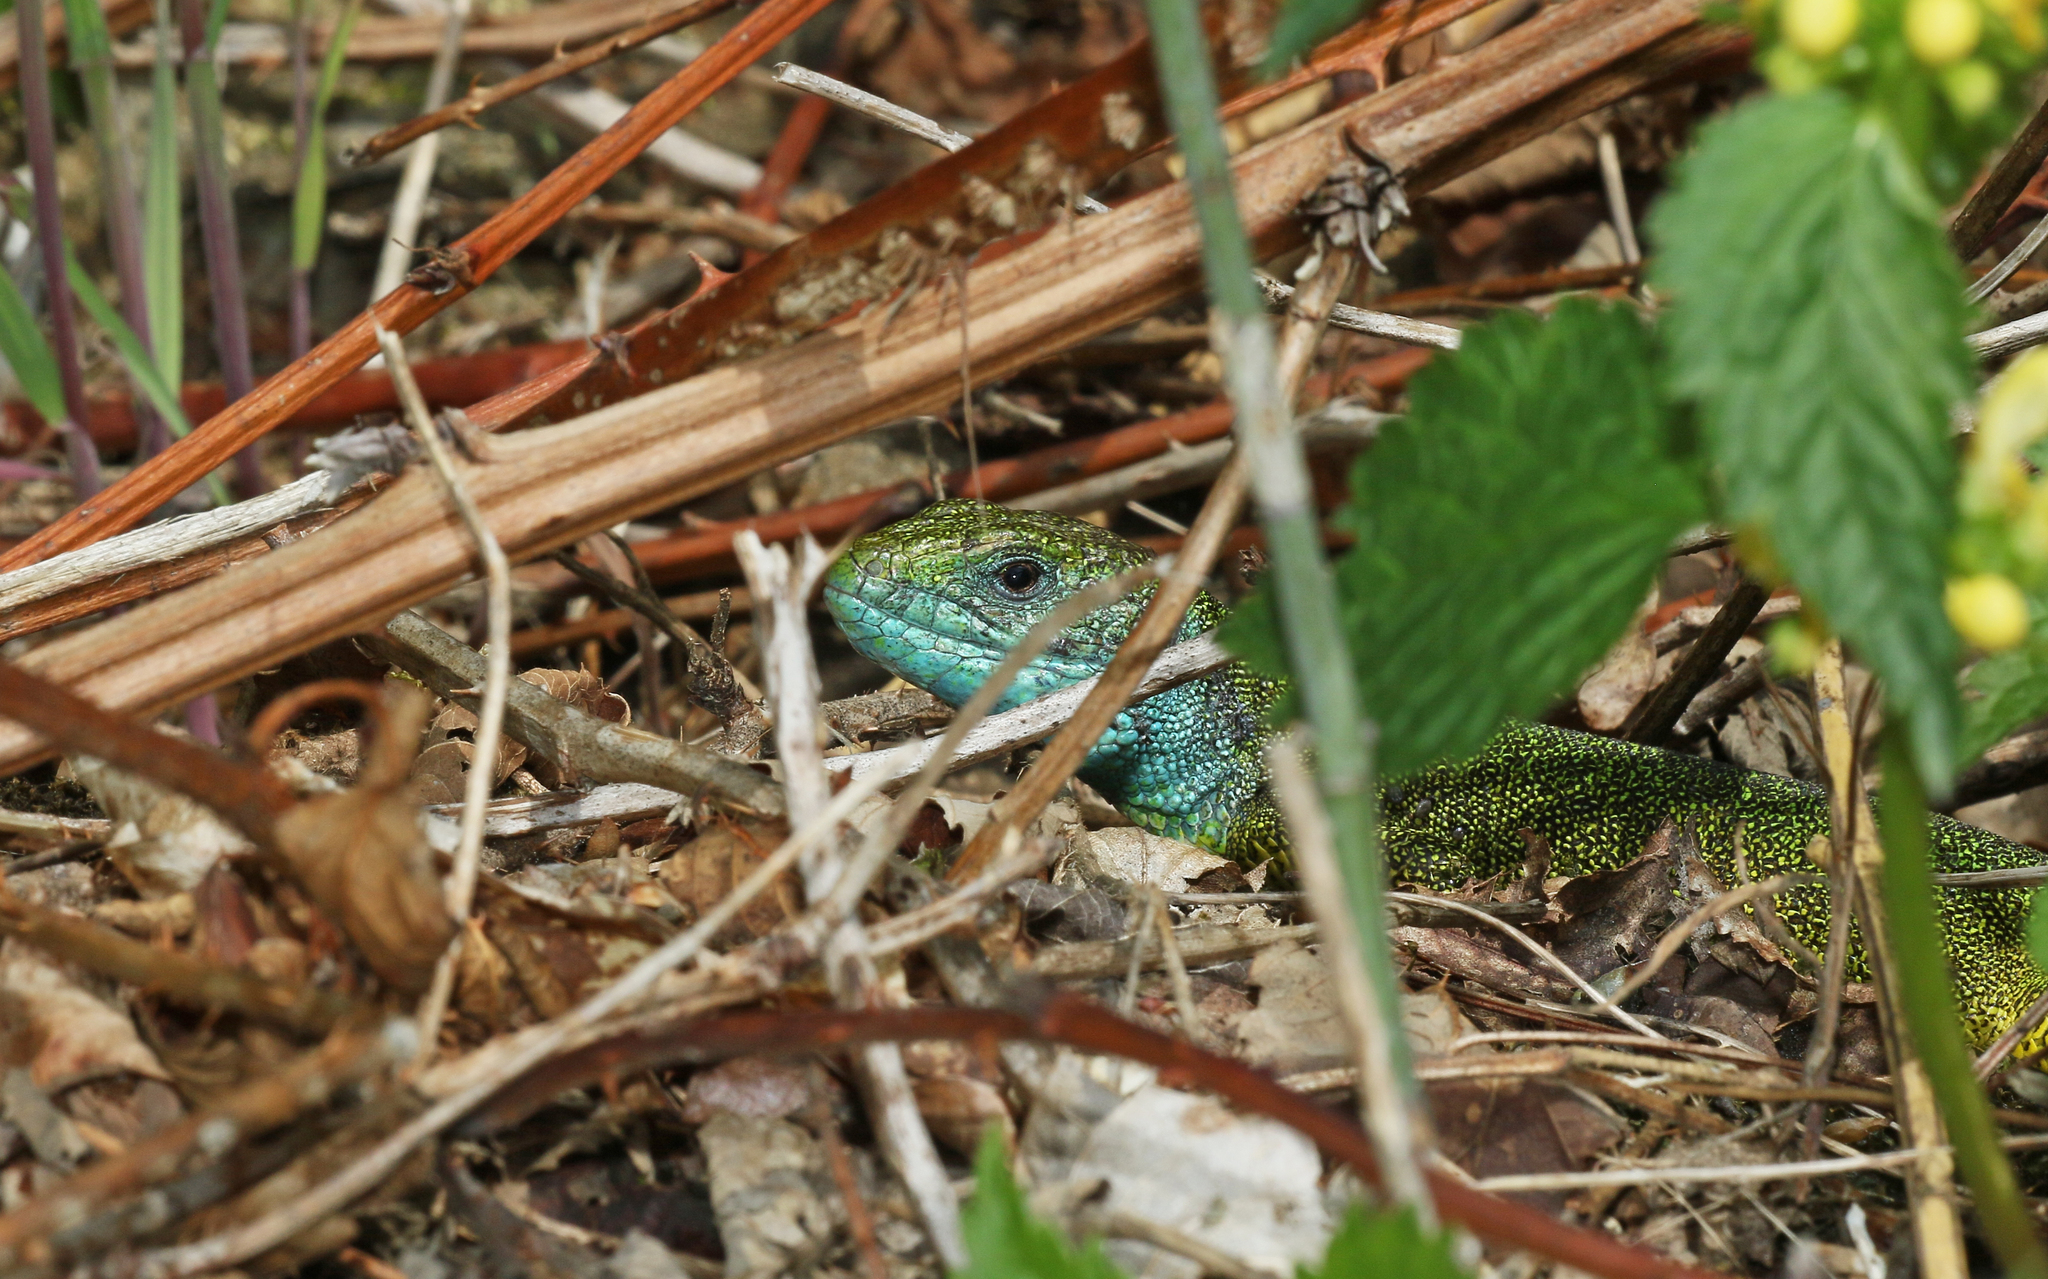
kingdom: Animalia
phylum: Chordata
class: Squamata
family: Lacertidae
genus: Lacerta
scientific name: Lacerta viridis
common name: European green lizard
